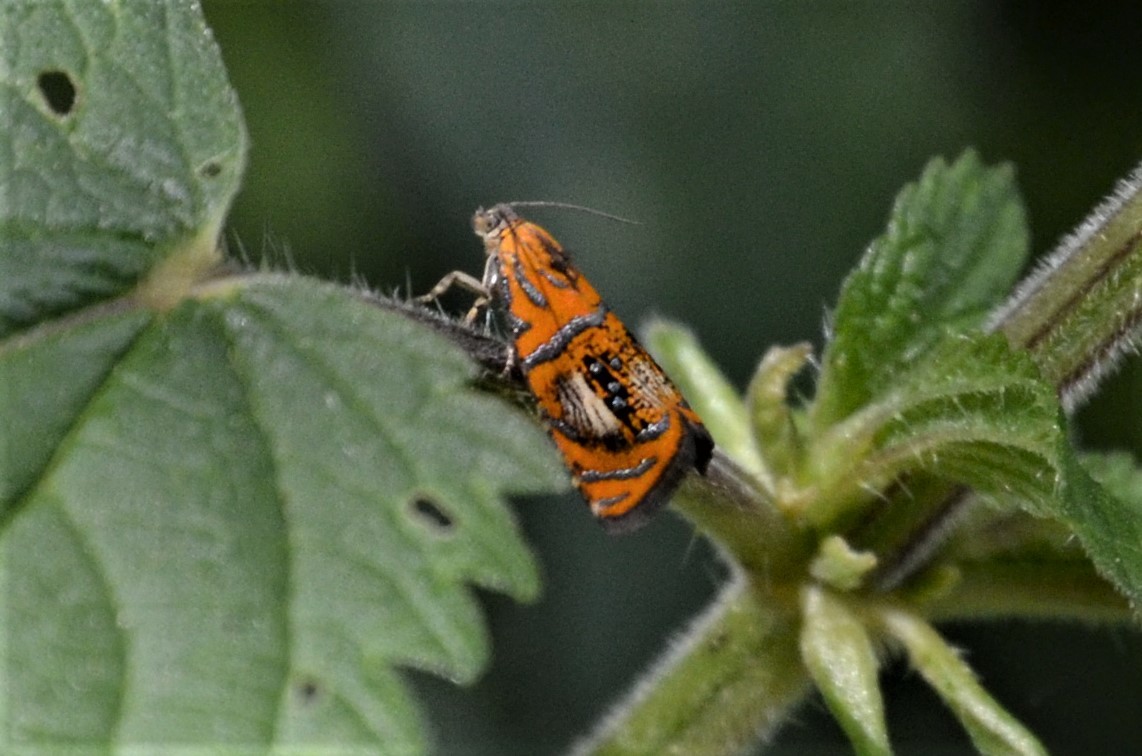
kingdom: Animalia
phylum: Arthropoda
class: Insecta
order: Lepidoptera
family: Tortricidae
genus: Olethreutes
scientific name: Olethreutes arcuella
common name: Arched marble
